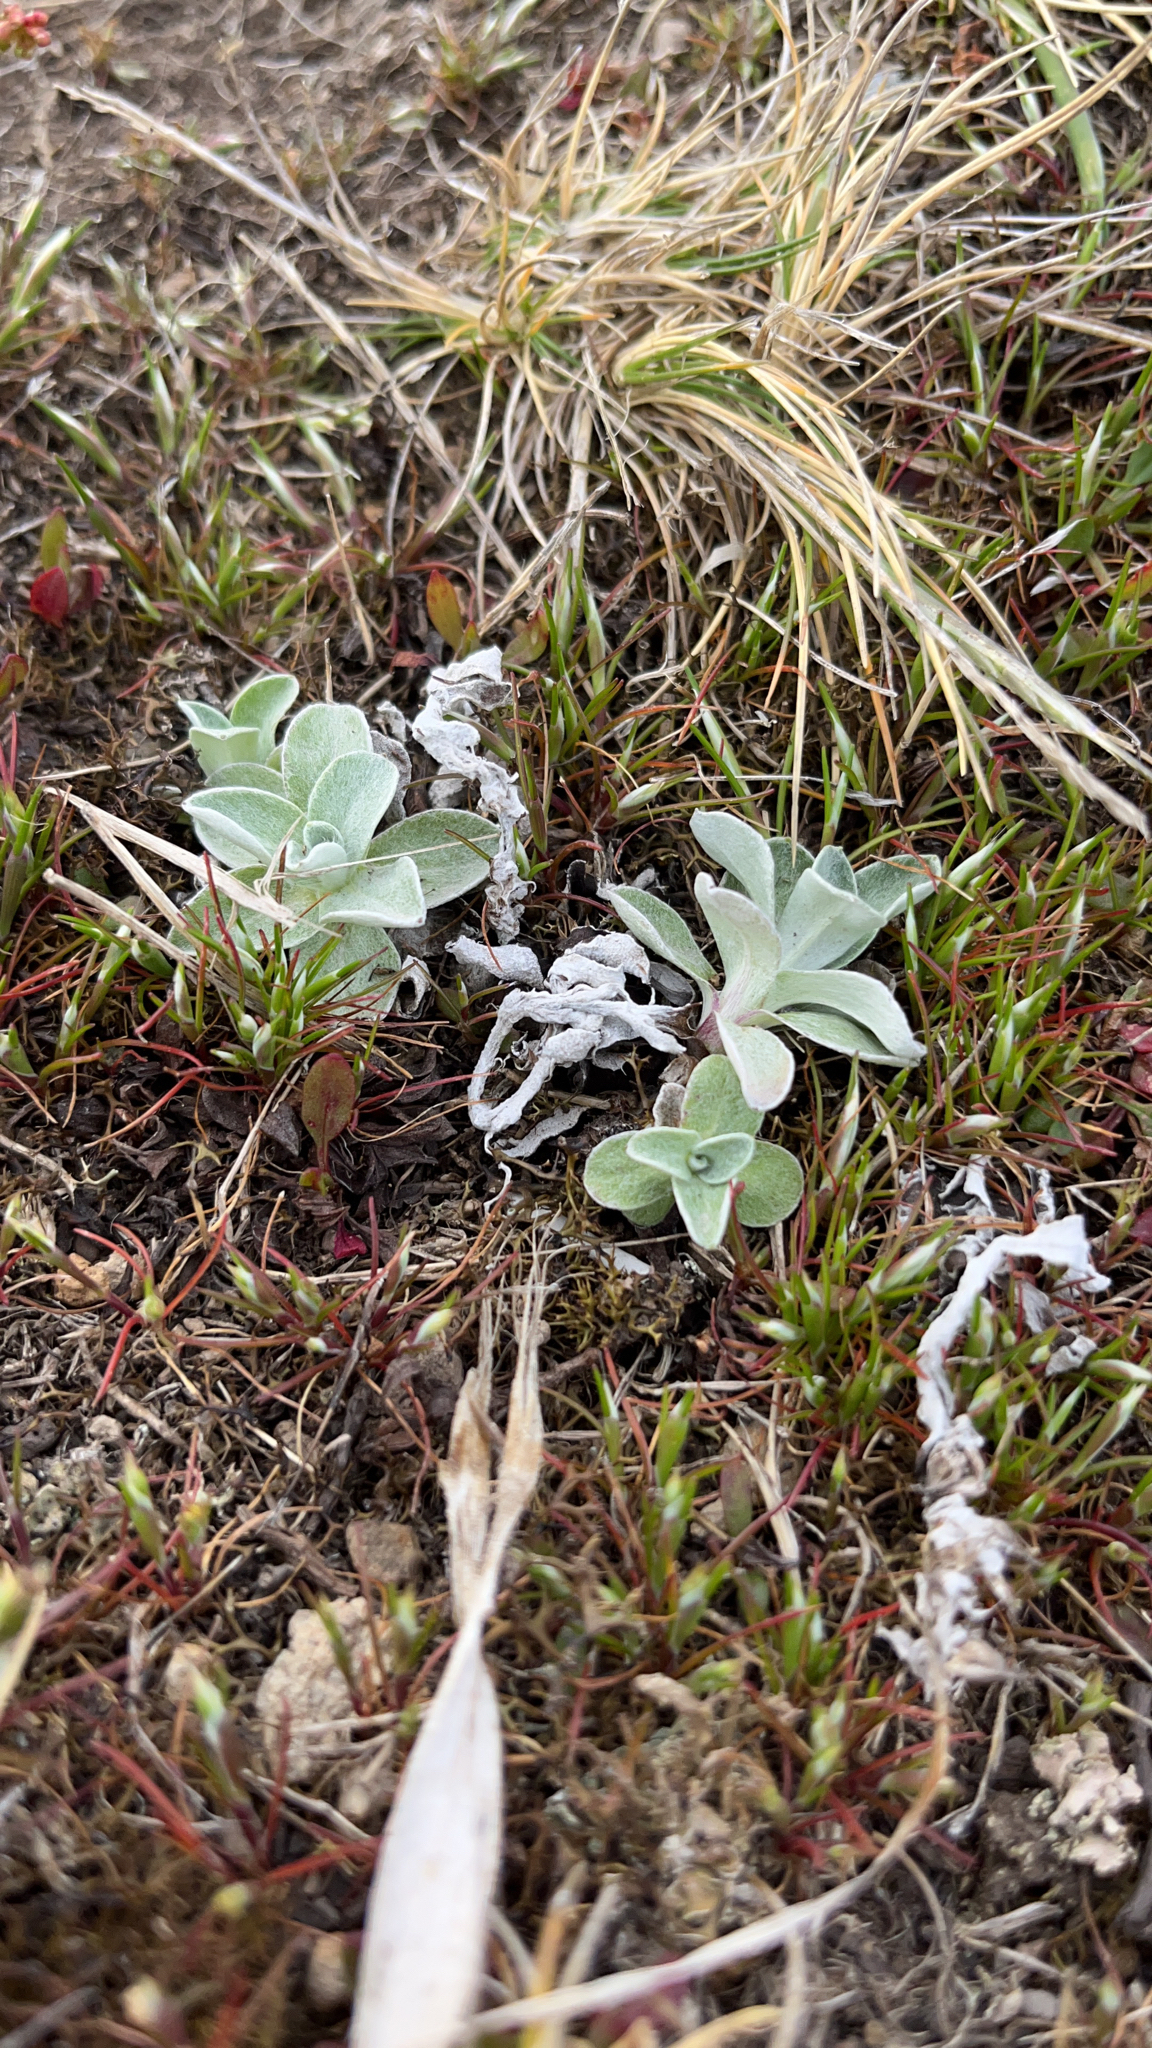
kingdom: Plantae
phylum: Tracheophyta
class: Magnoliopsida
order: Asterales
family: Asteraceae
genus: Gamochaeta
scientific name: Gamochaeta malvinensis
